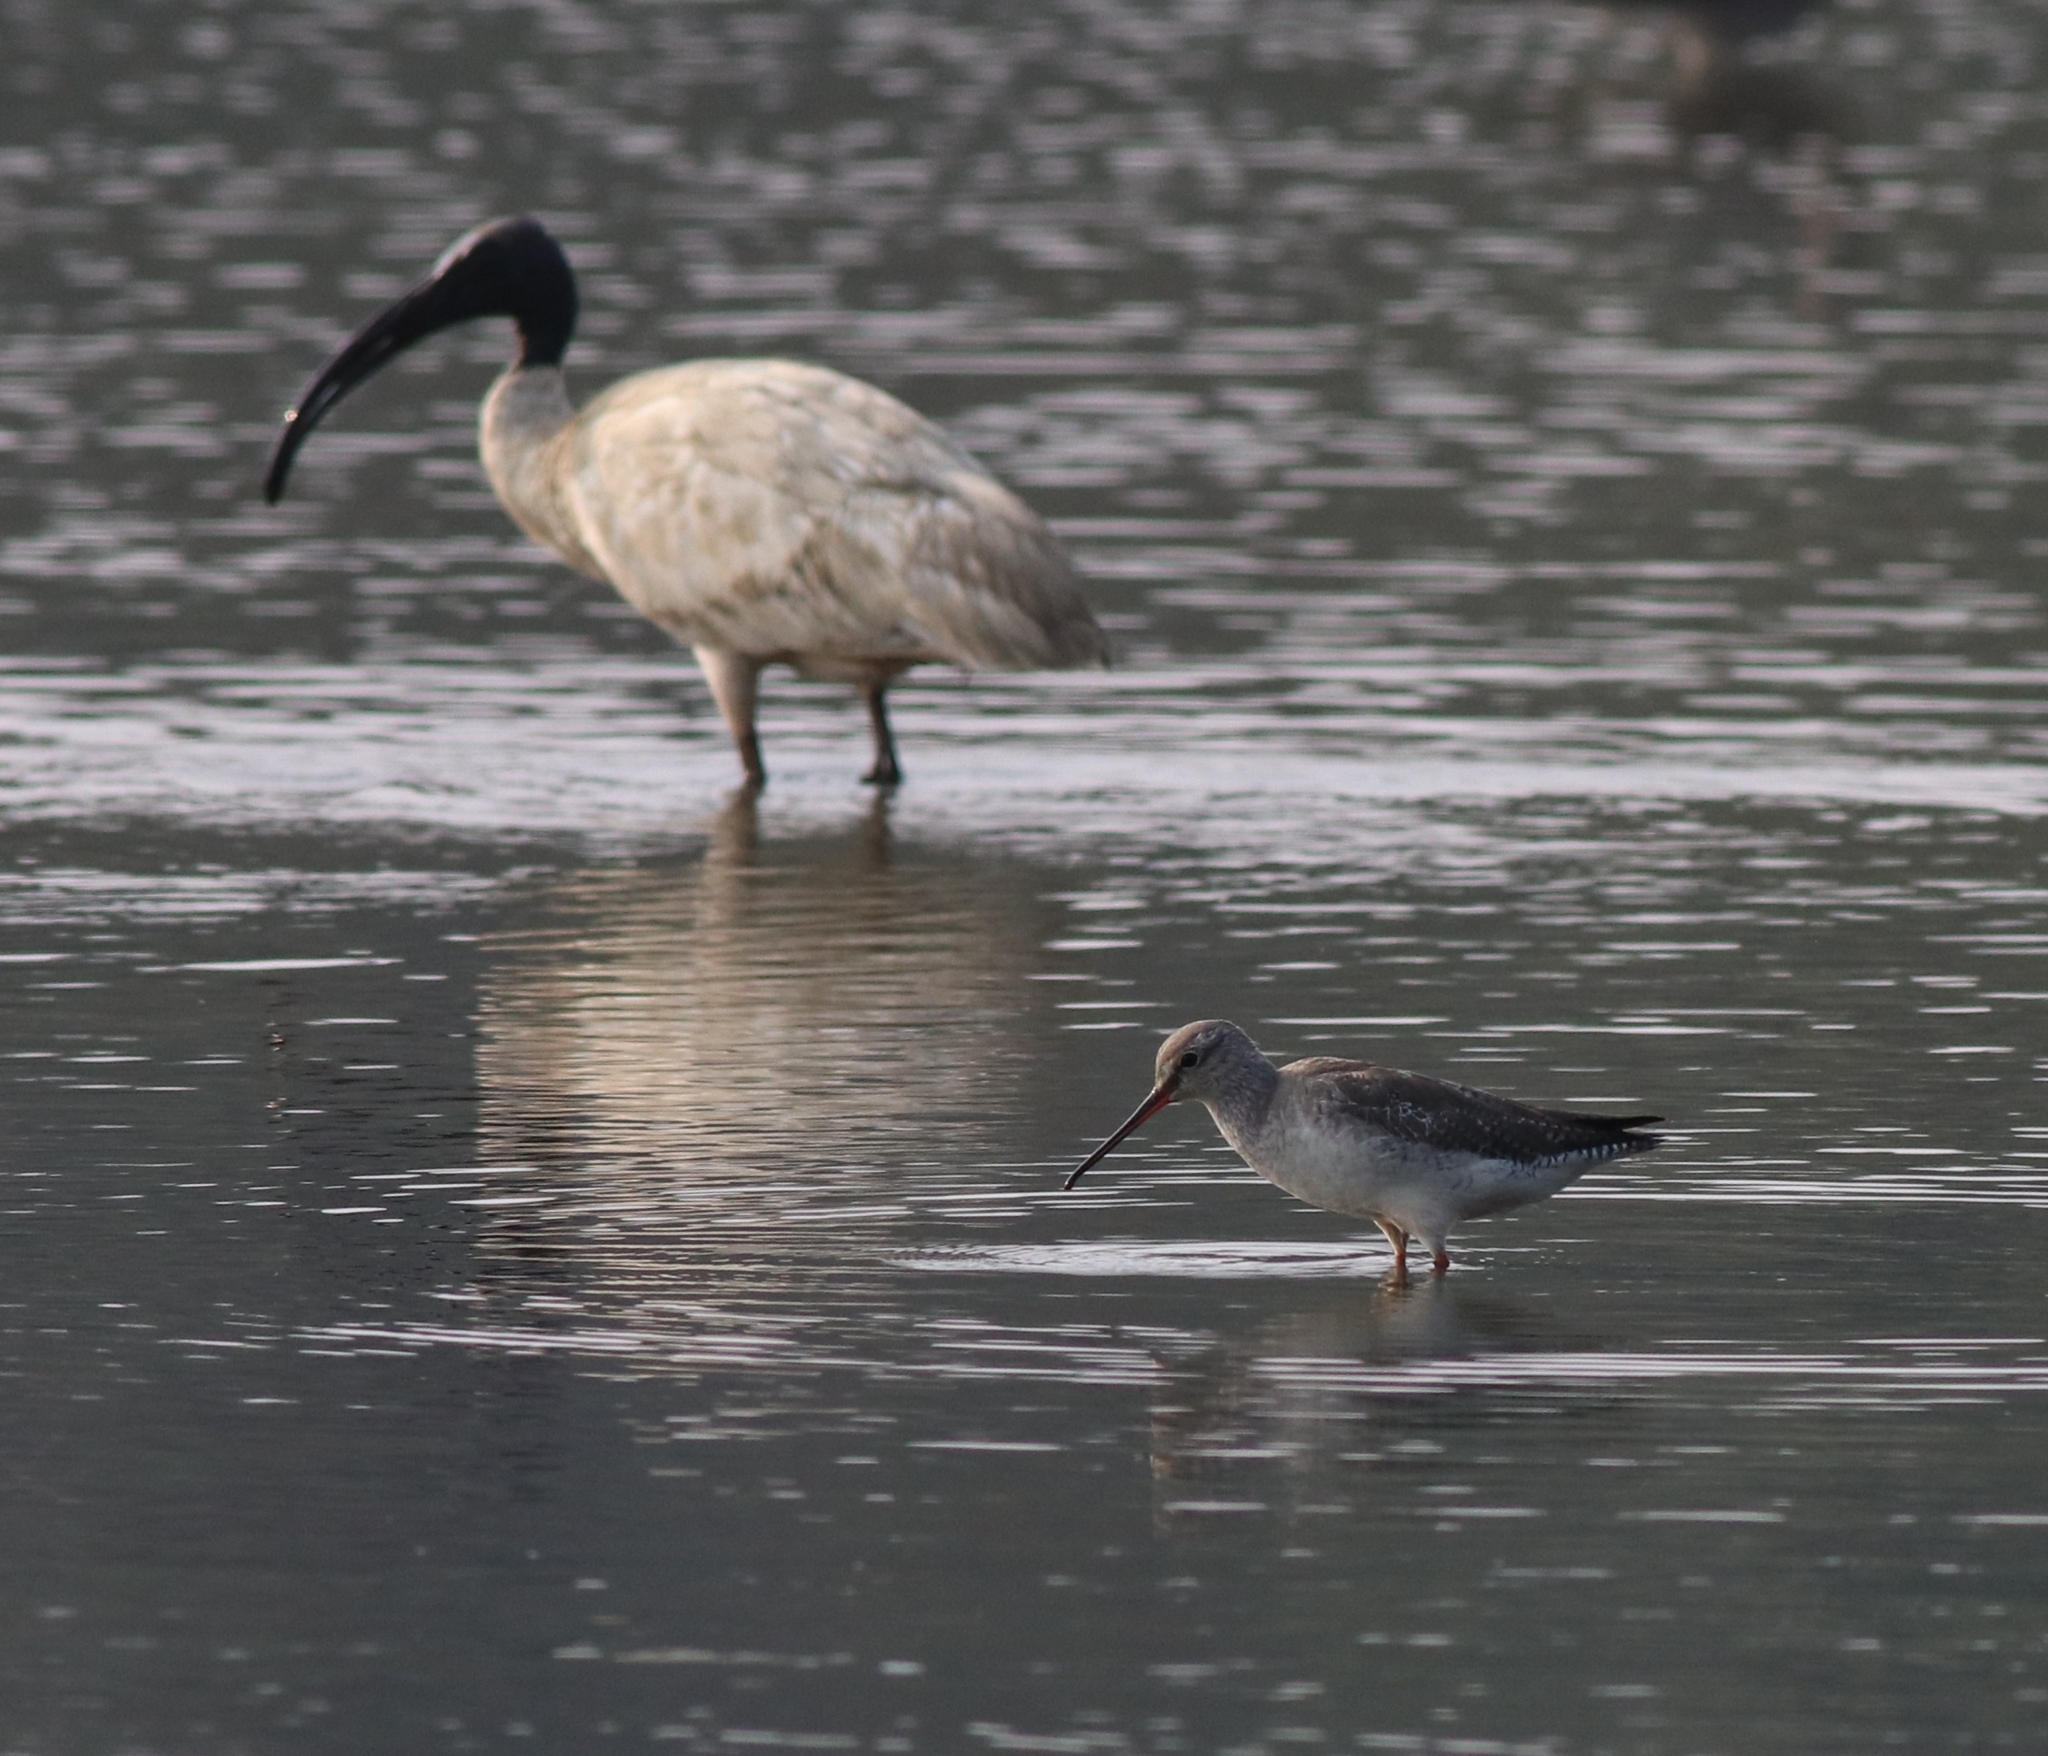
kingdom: Animalia
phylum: Chordata
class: Aves
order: Pelecaniformes
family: Threskiornithidae
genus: Threskiornis
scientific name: Threskiornis melanocephalus
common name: Black-headed ibis
